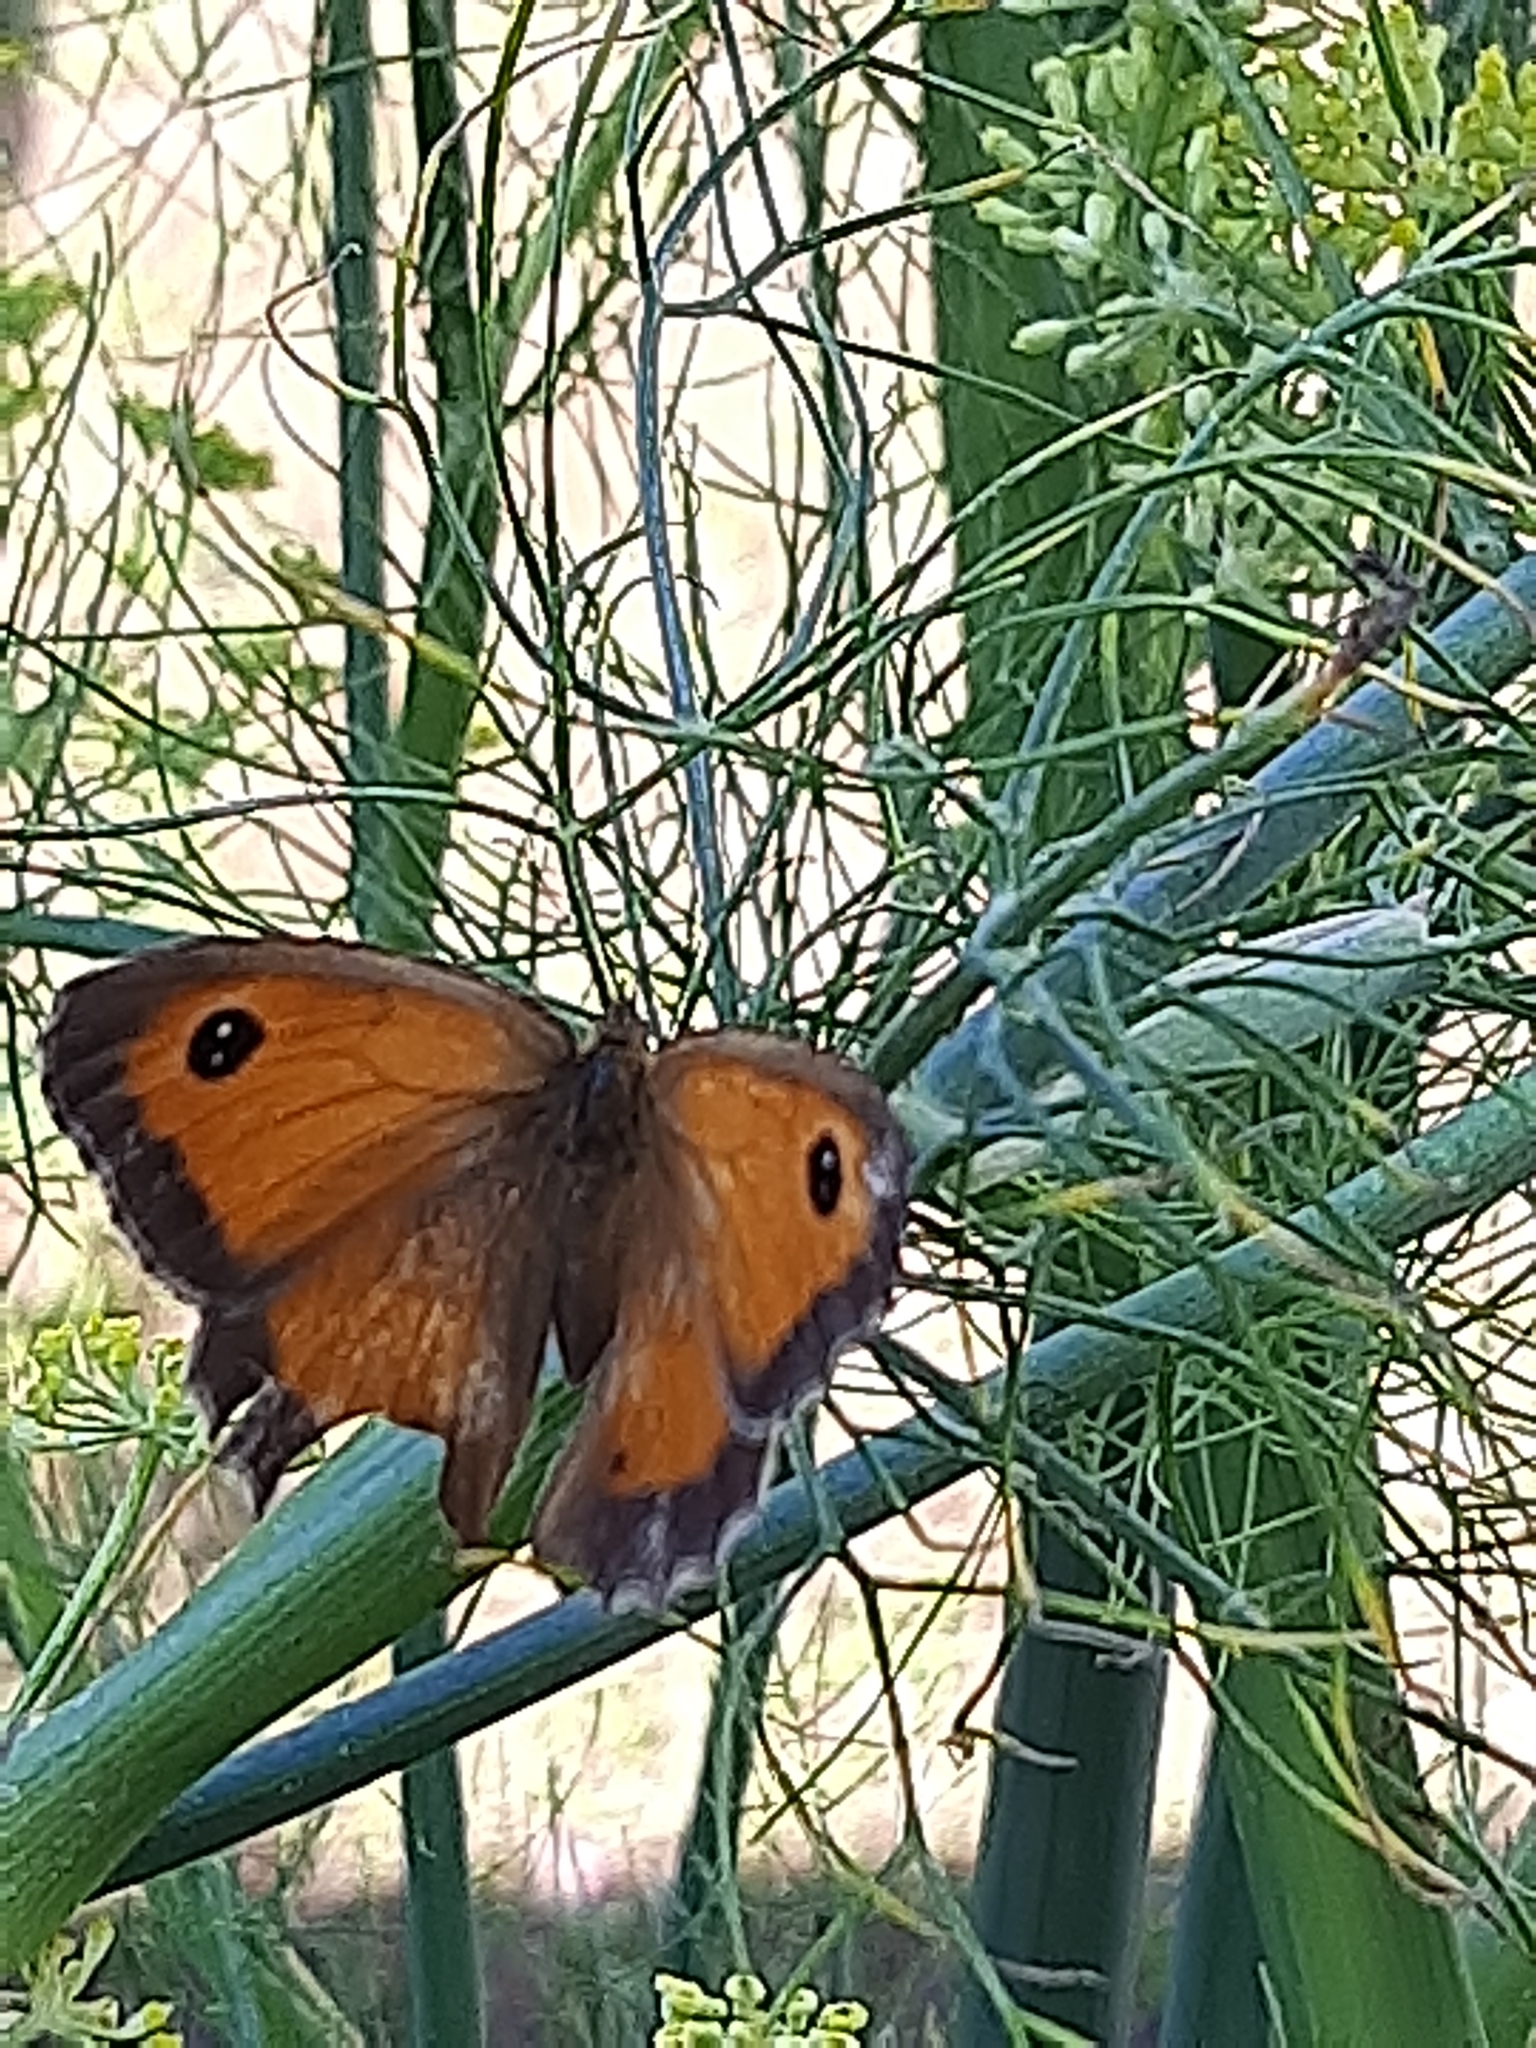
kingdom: Animalia
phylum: Arthropoda
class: Insecta
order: Lepidoptera
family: Nymphalidae
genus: Pyronia
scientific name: Pyronia tithonus
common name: Gatekeeper
